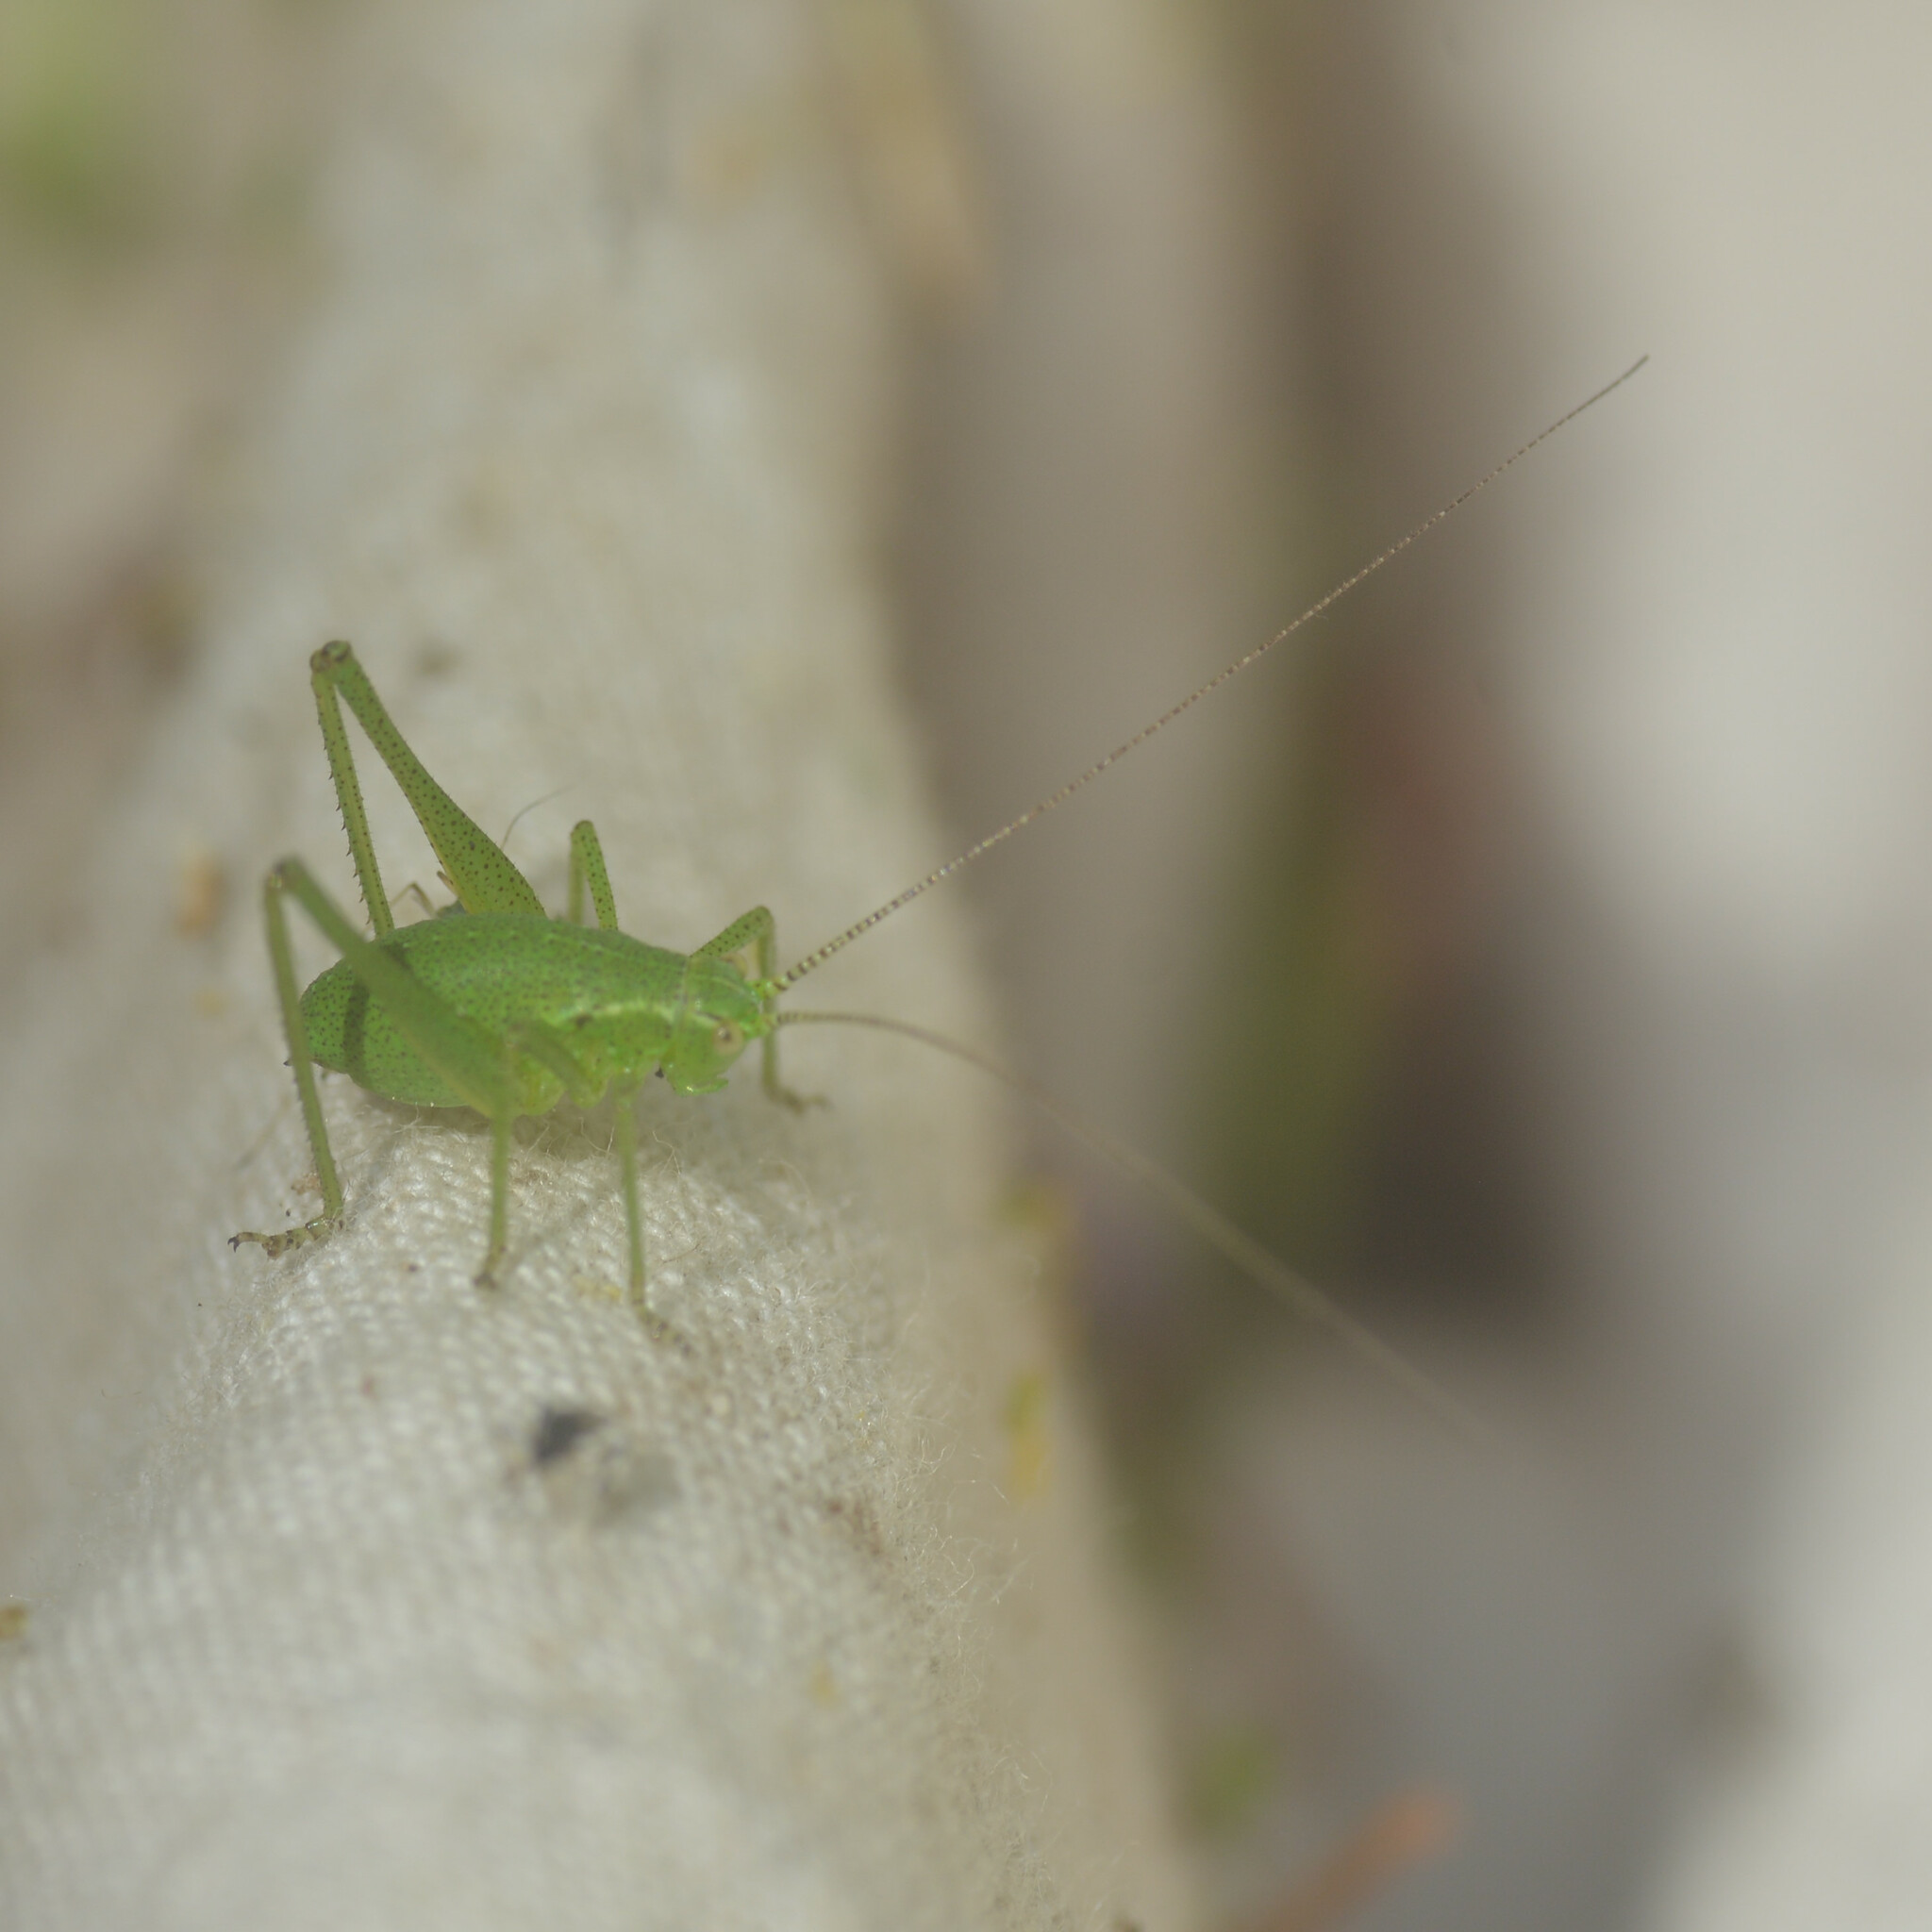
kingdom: Animalia
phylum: Arthropoda
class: Insecta
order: Orthoptera
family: Tettigoniidae
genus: Leptophyes
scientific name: Leptophyes punctatissima
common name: Speckled bush-cricket
